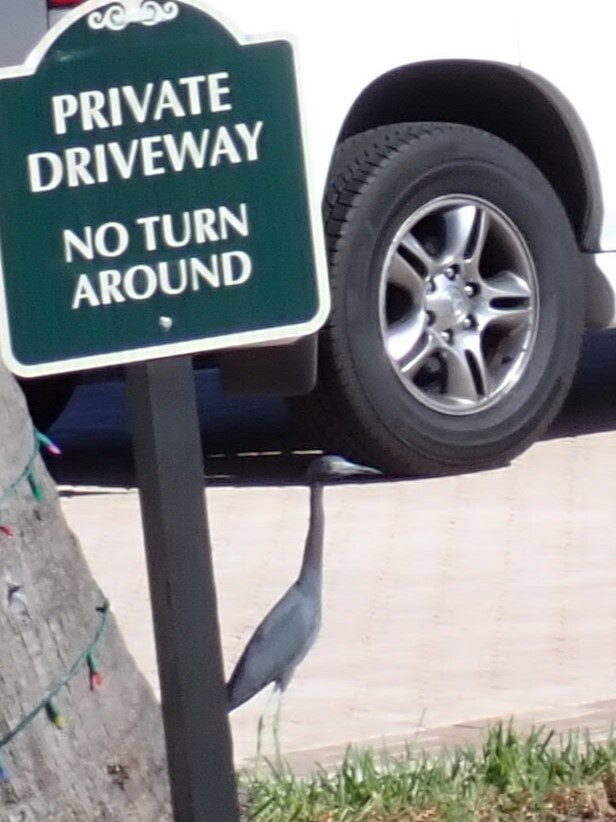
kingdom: Animalia
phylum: Chordata
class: Aves
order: Pelecaniformes
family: Ardeidae
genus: Egretta
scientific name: Egretta caerulea
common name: Little blue heron
